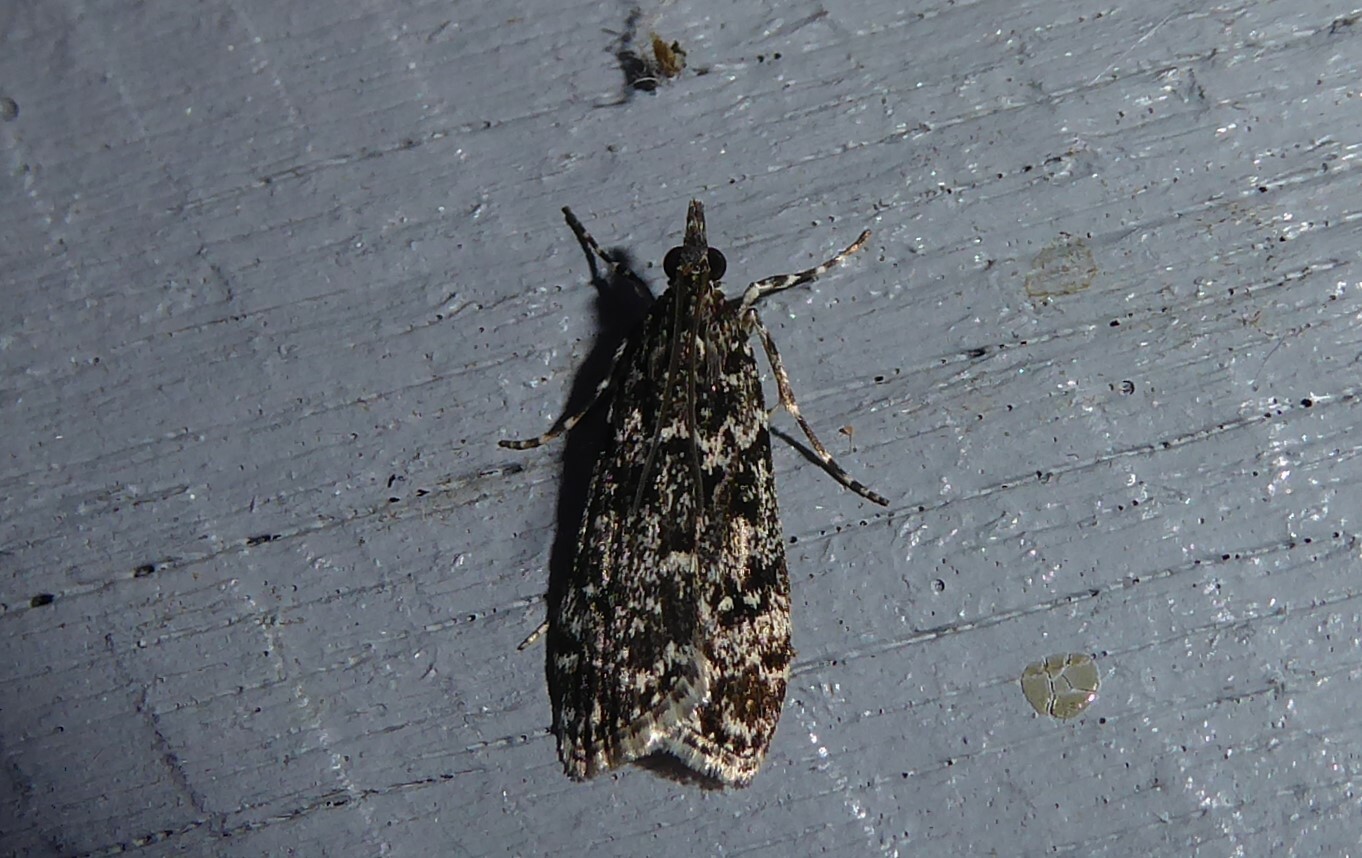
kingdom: Animalia
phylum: Arthropoda
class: Insecta
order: Lepidoptera
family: Crambidae
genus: Eudonia
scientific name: Eudonia philerga
